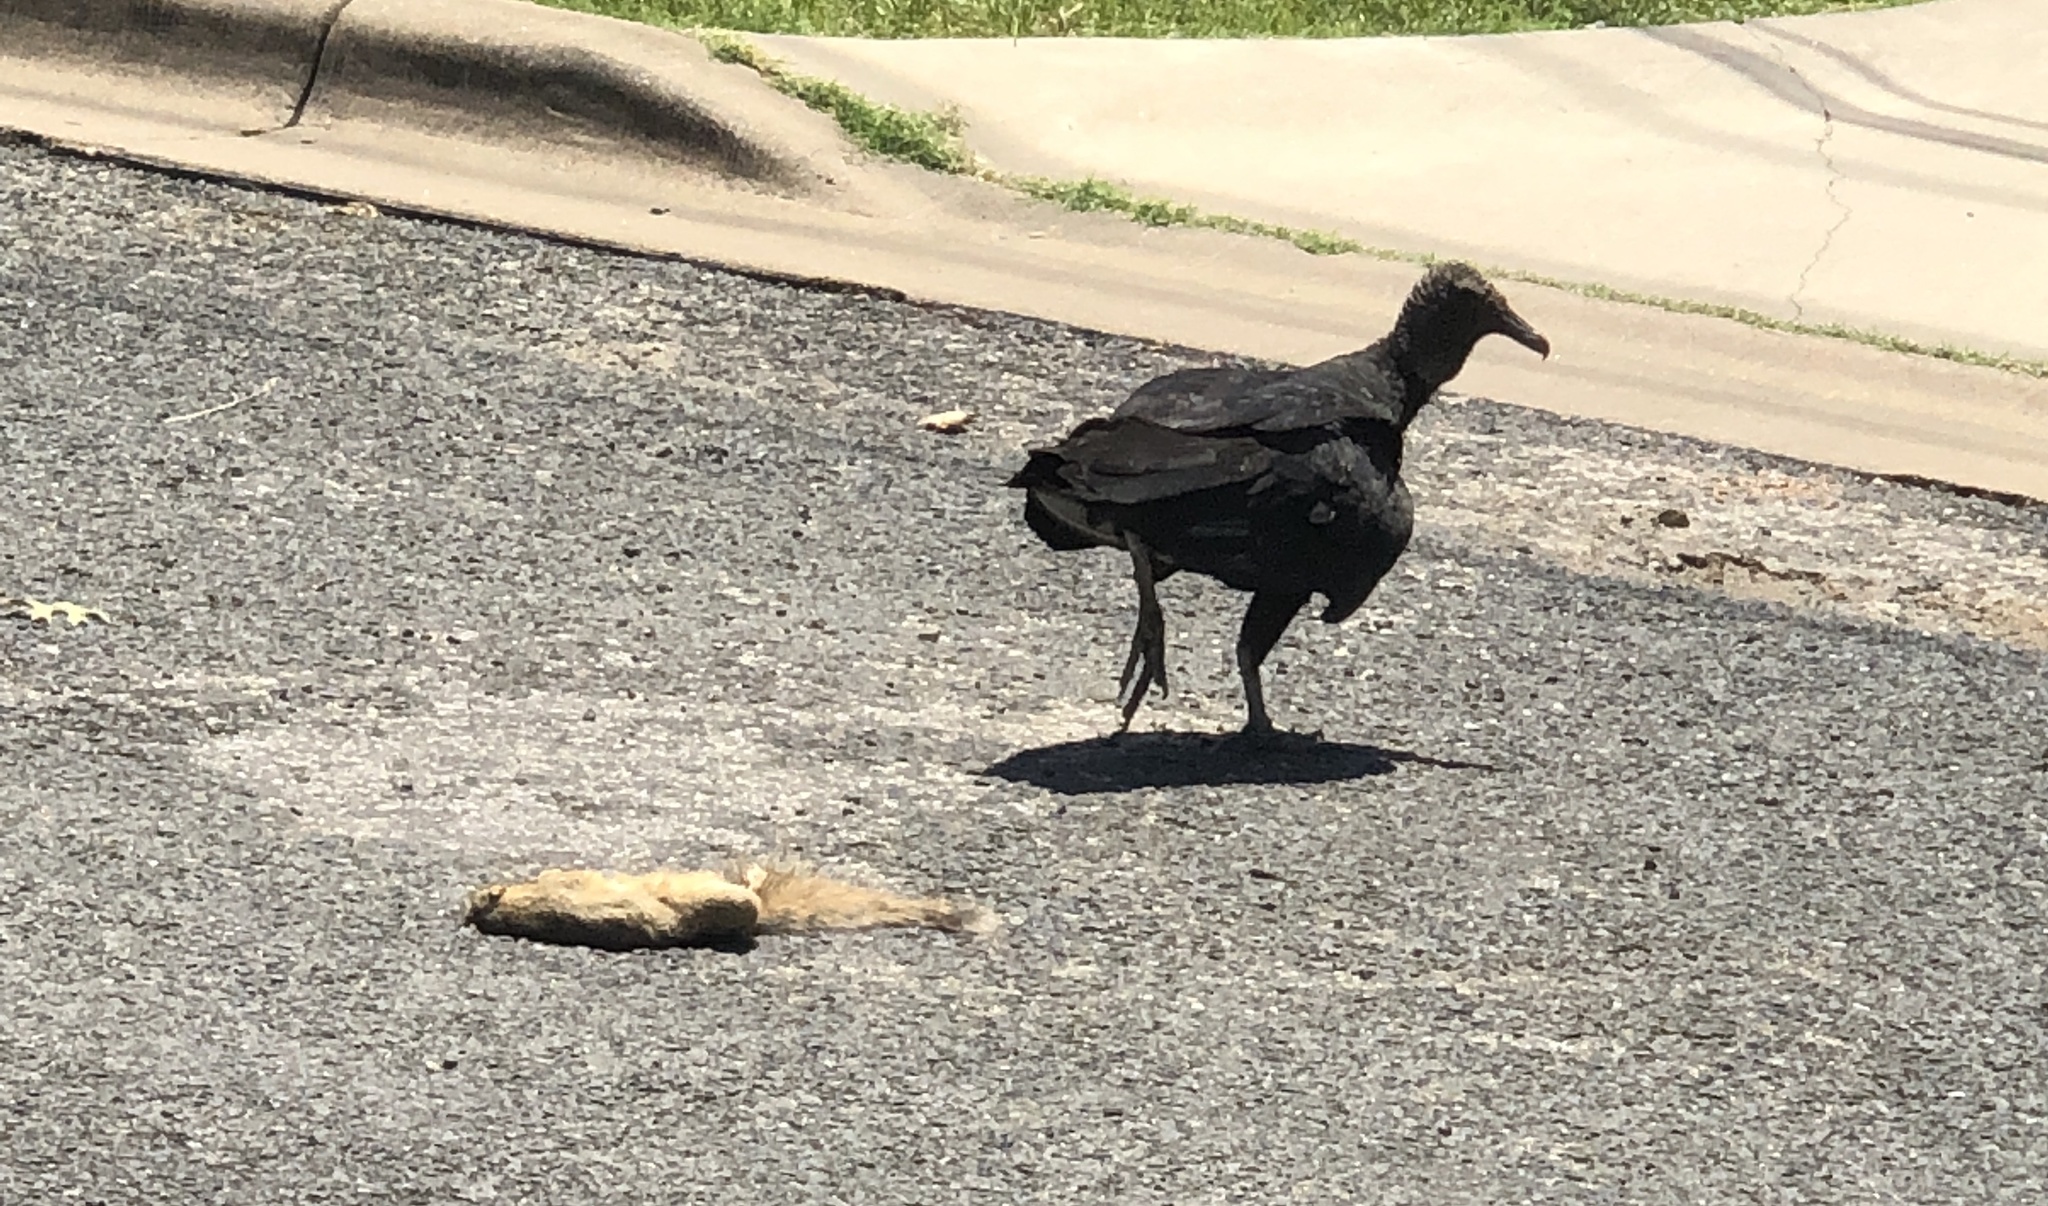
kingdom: Animalia
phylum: Chordata
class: Aves
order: Accipitriformes
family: Cathartidae
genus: Coragyps
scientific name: Coragyps atratus
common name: Black vulture
